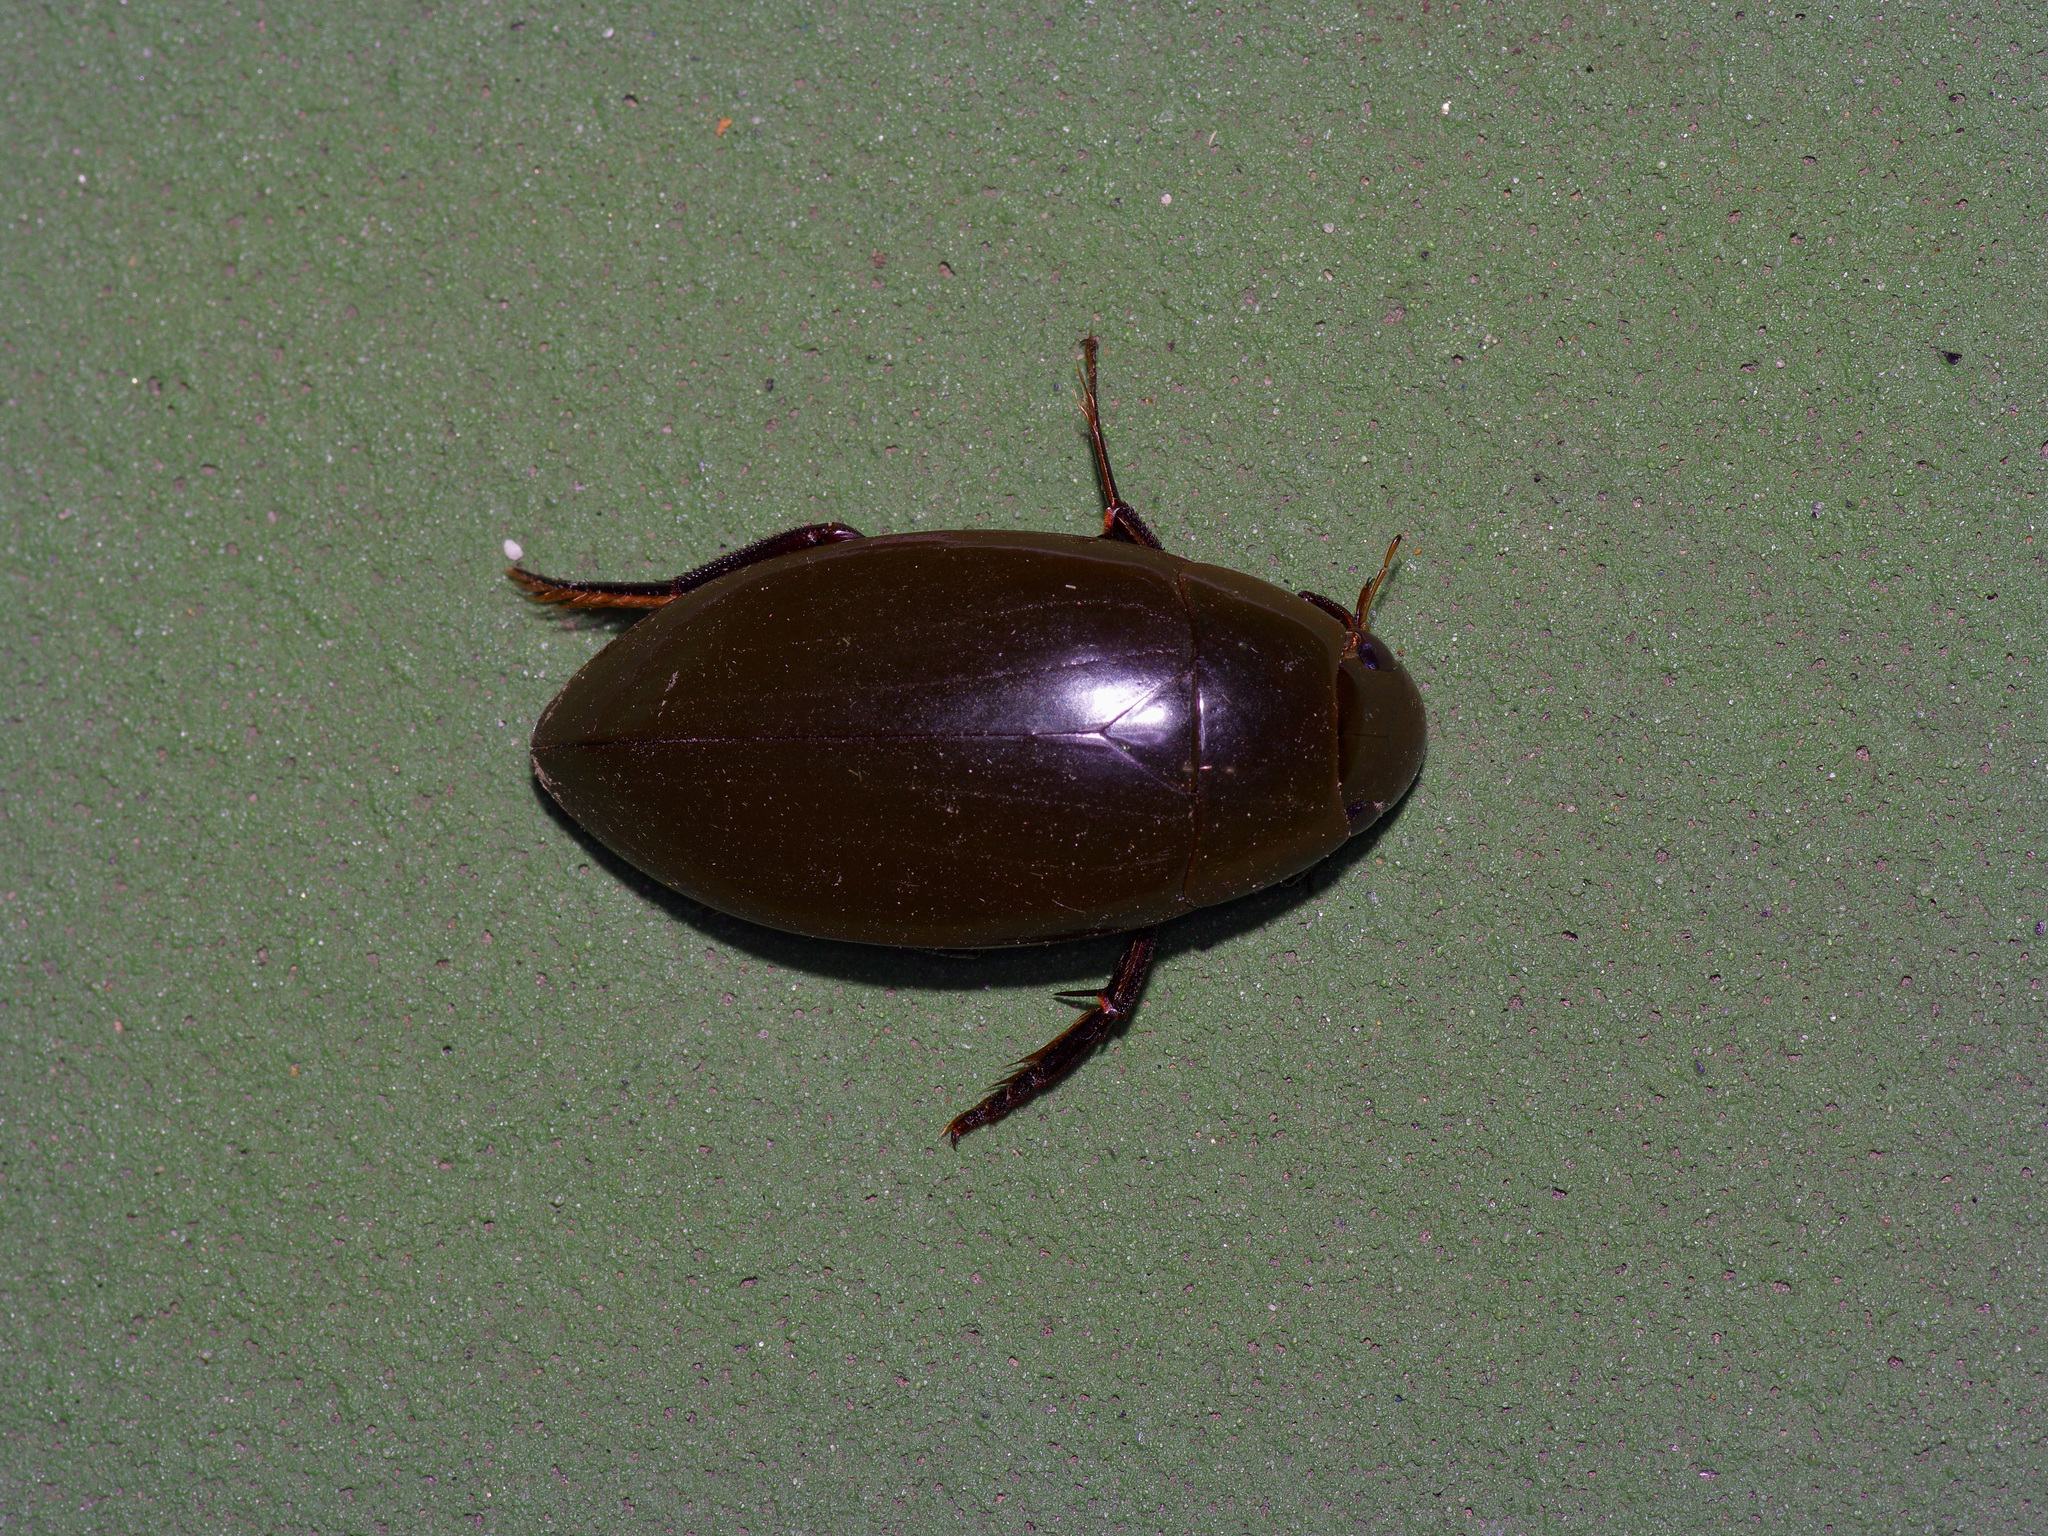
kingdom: Animalia
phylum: Arthropoda
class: Insecta
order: Coleoptera
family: Hydrophilidae
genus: Hydrophilus
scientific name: Hydrophilus triangularis
